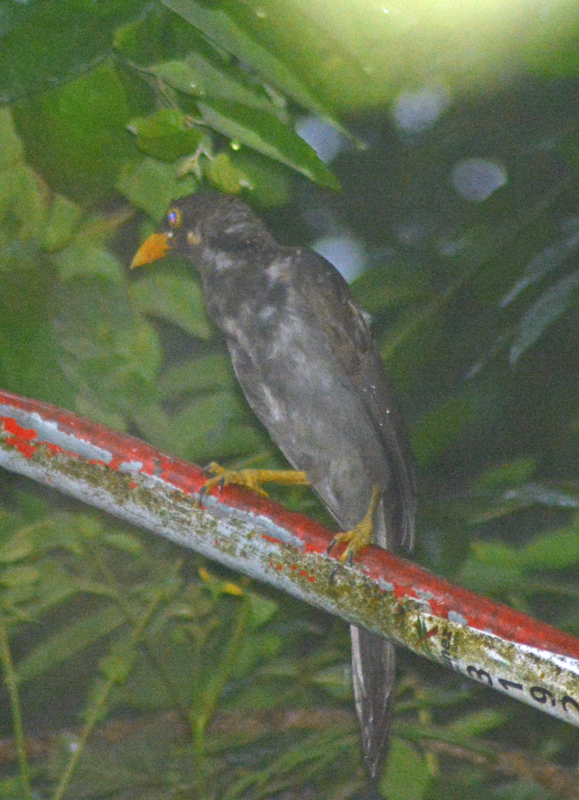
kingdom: Animalia
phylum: Chordata
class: Aves
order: Passeriformes
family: Corvidae
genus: Psilorhinus
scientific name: Psilorhinus morio
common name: Brown jay
